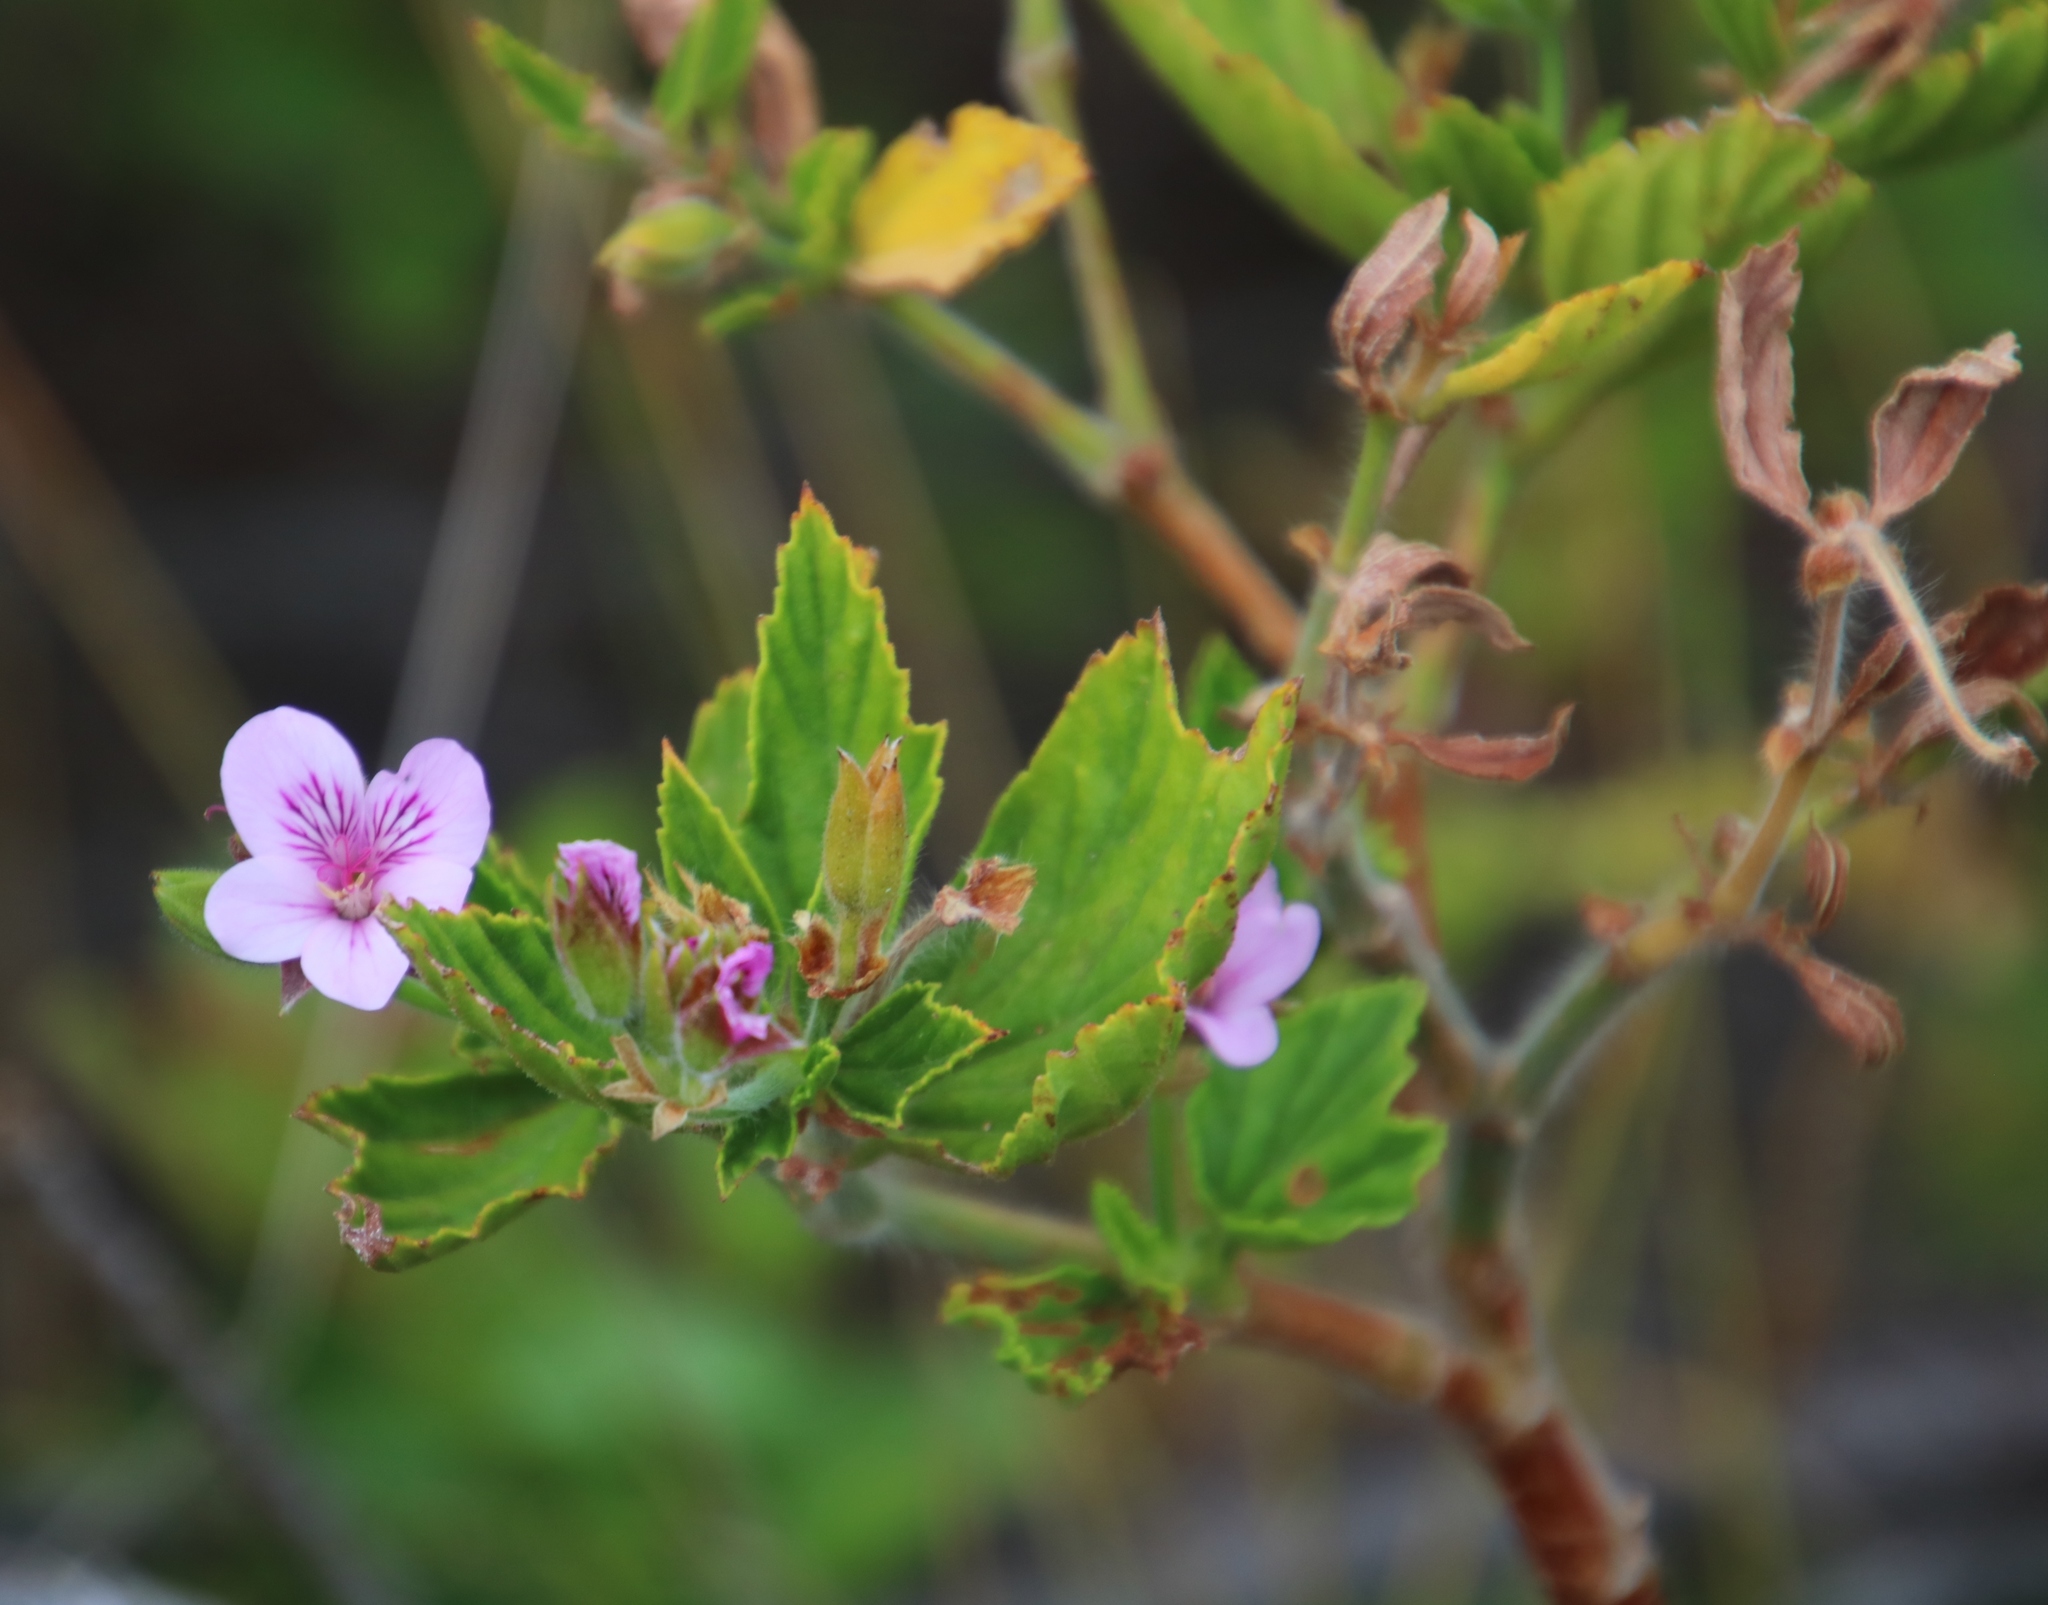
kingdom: Plantae
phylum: Tracheophyta
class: Magnoliopsida
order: Geraniales
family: Geraniaceae
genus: Pelargonium
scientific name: Pelargonium cucullatum
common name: Tree pelargonium
